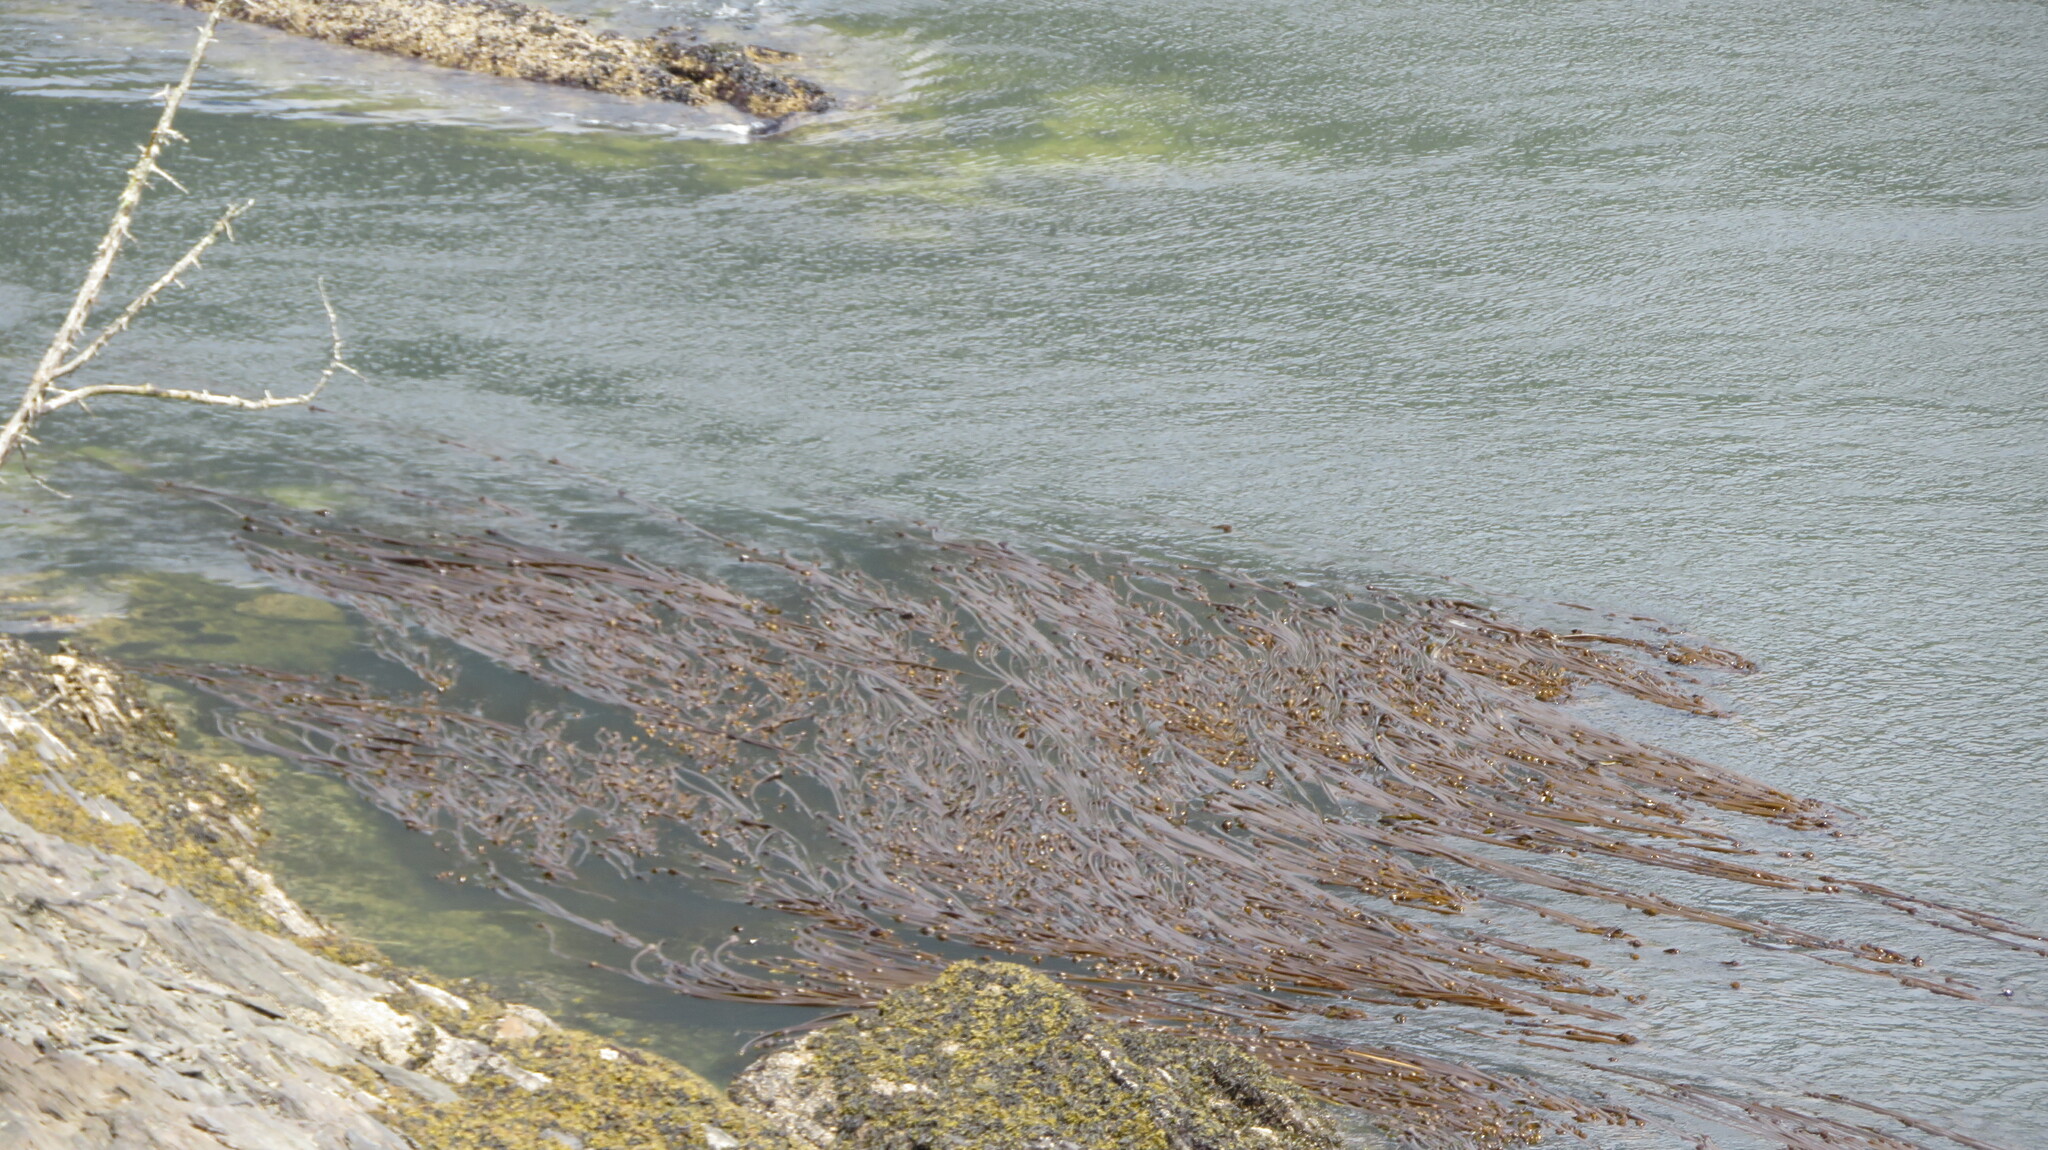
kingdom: Chromista
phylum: Ochrophyta
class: Phaeophyceae
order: Laminariales
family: Laminariaceae
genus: Nereocystis
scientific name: Nereocystis luetkeana
